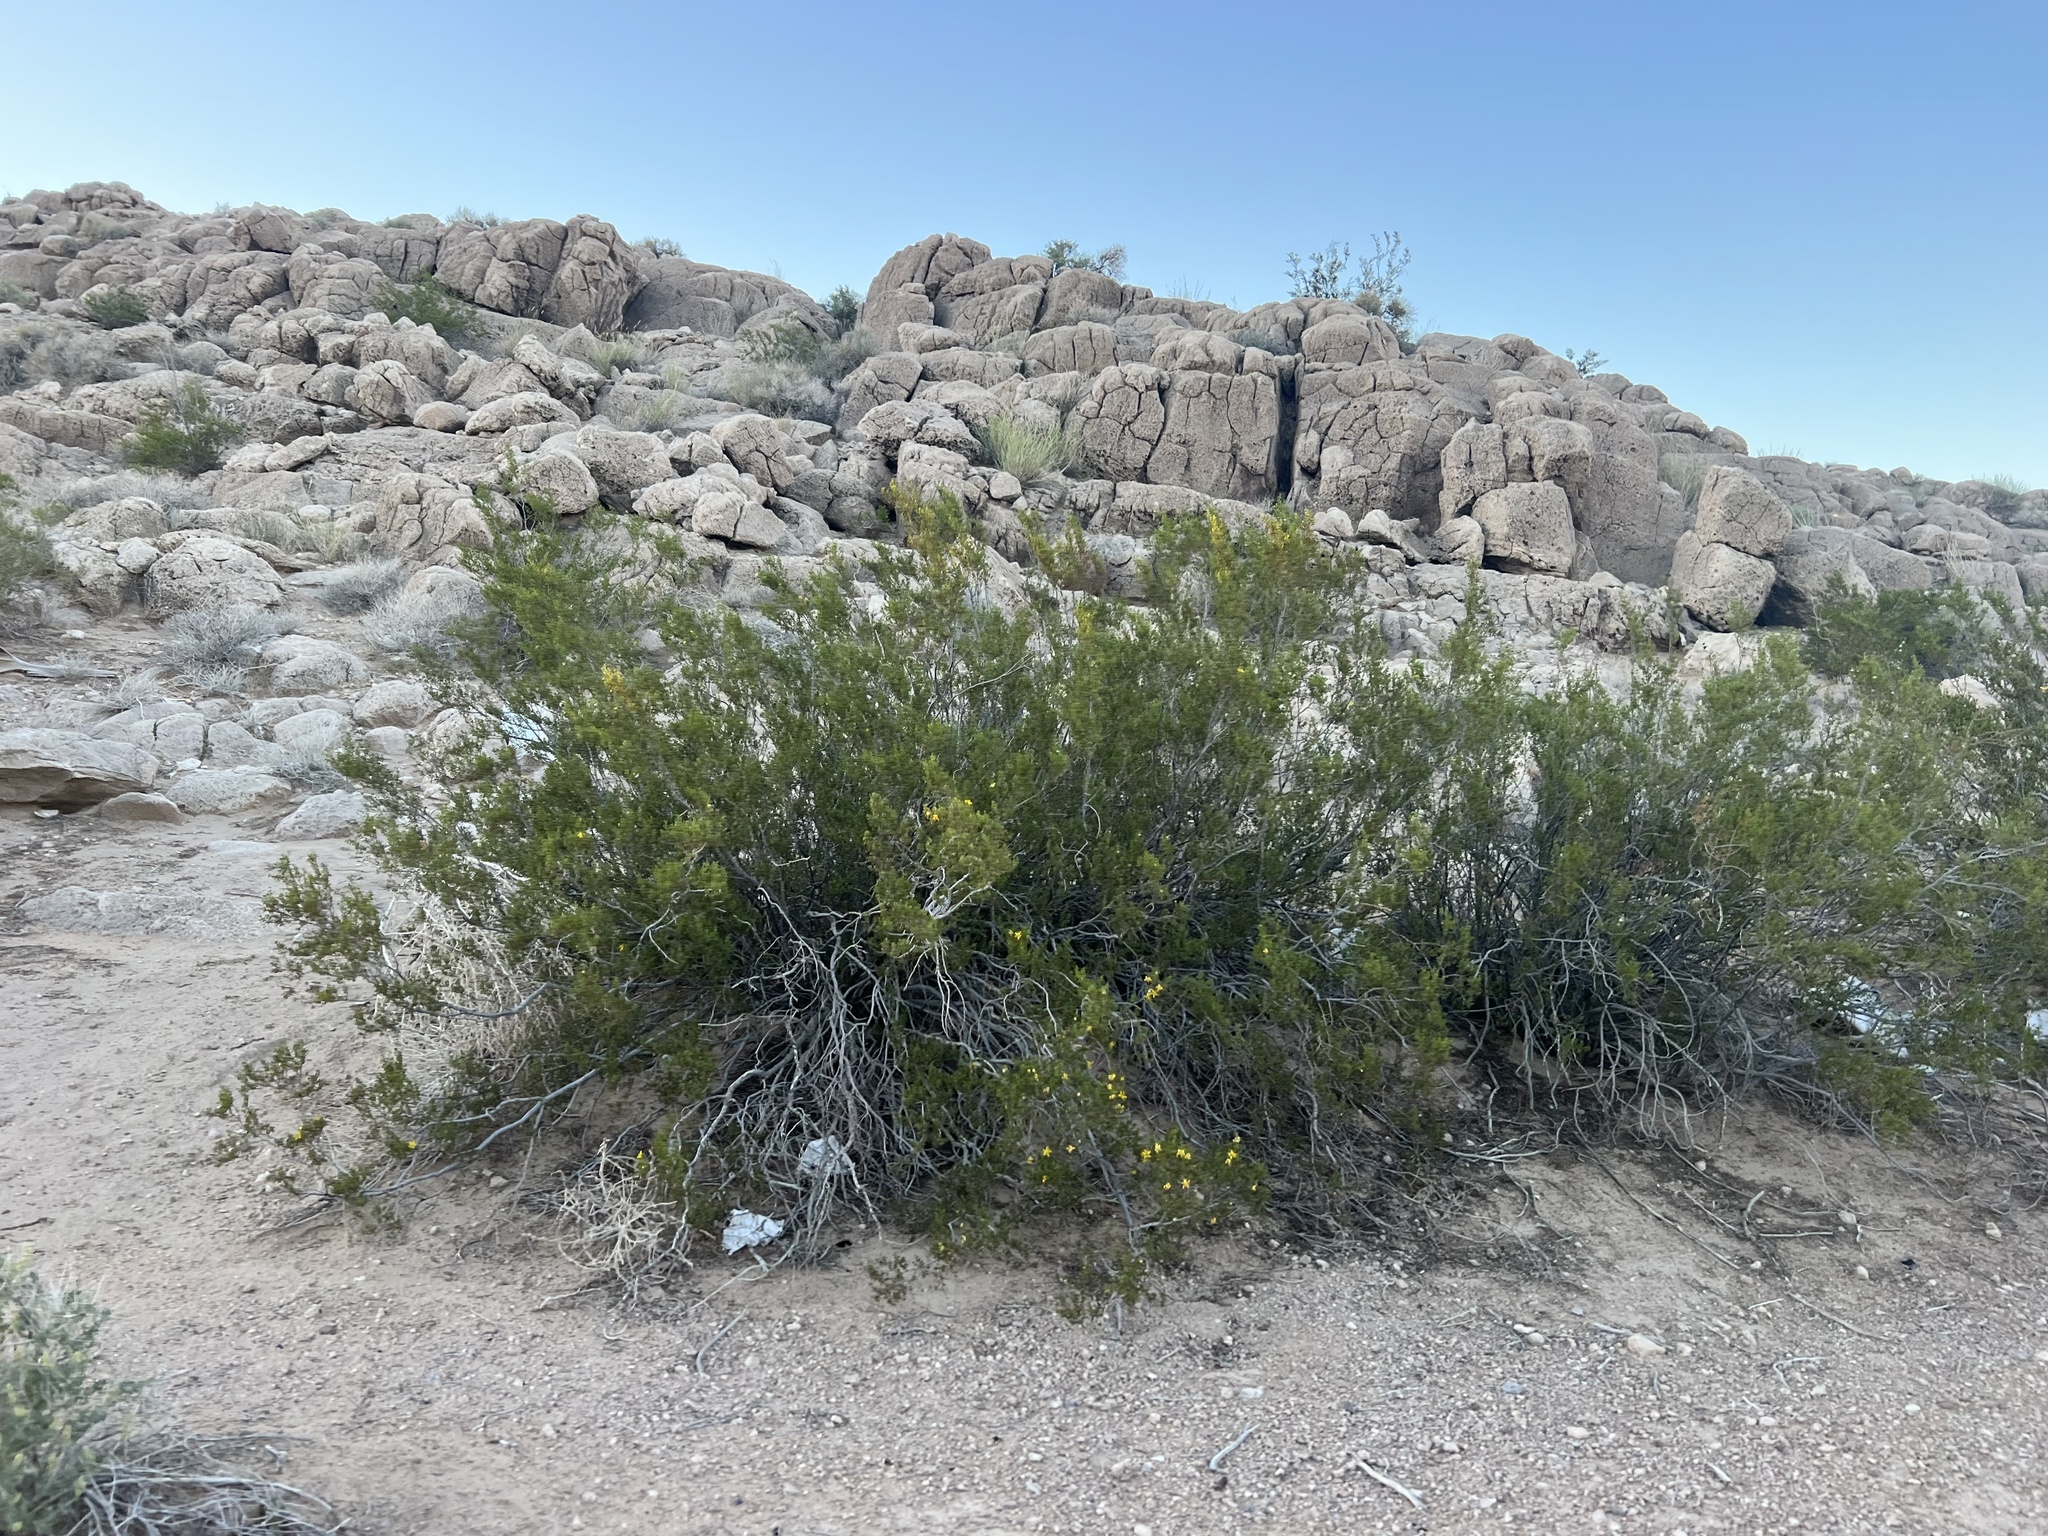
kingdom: Plantae
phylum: Tracheophyta
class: Magnoliopsida
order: Zygophyllales
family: Zygophyllaceae
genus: Larrea
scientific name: Larrea tridentata
